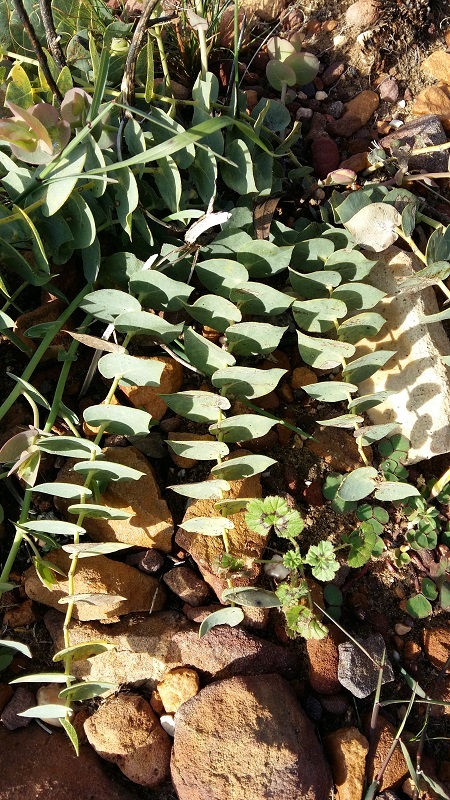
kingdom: Plantae
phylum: Tracheophyta
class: Magnoliopsida
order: Fabales
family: Fabaceae
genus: Rafnia
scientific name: Rafnia acuminata
